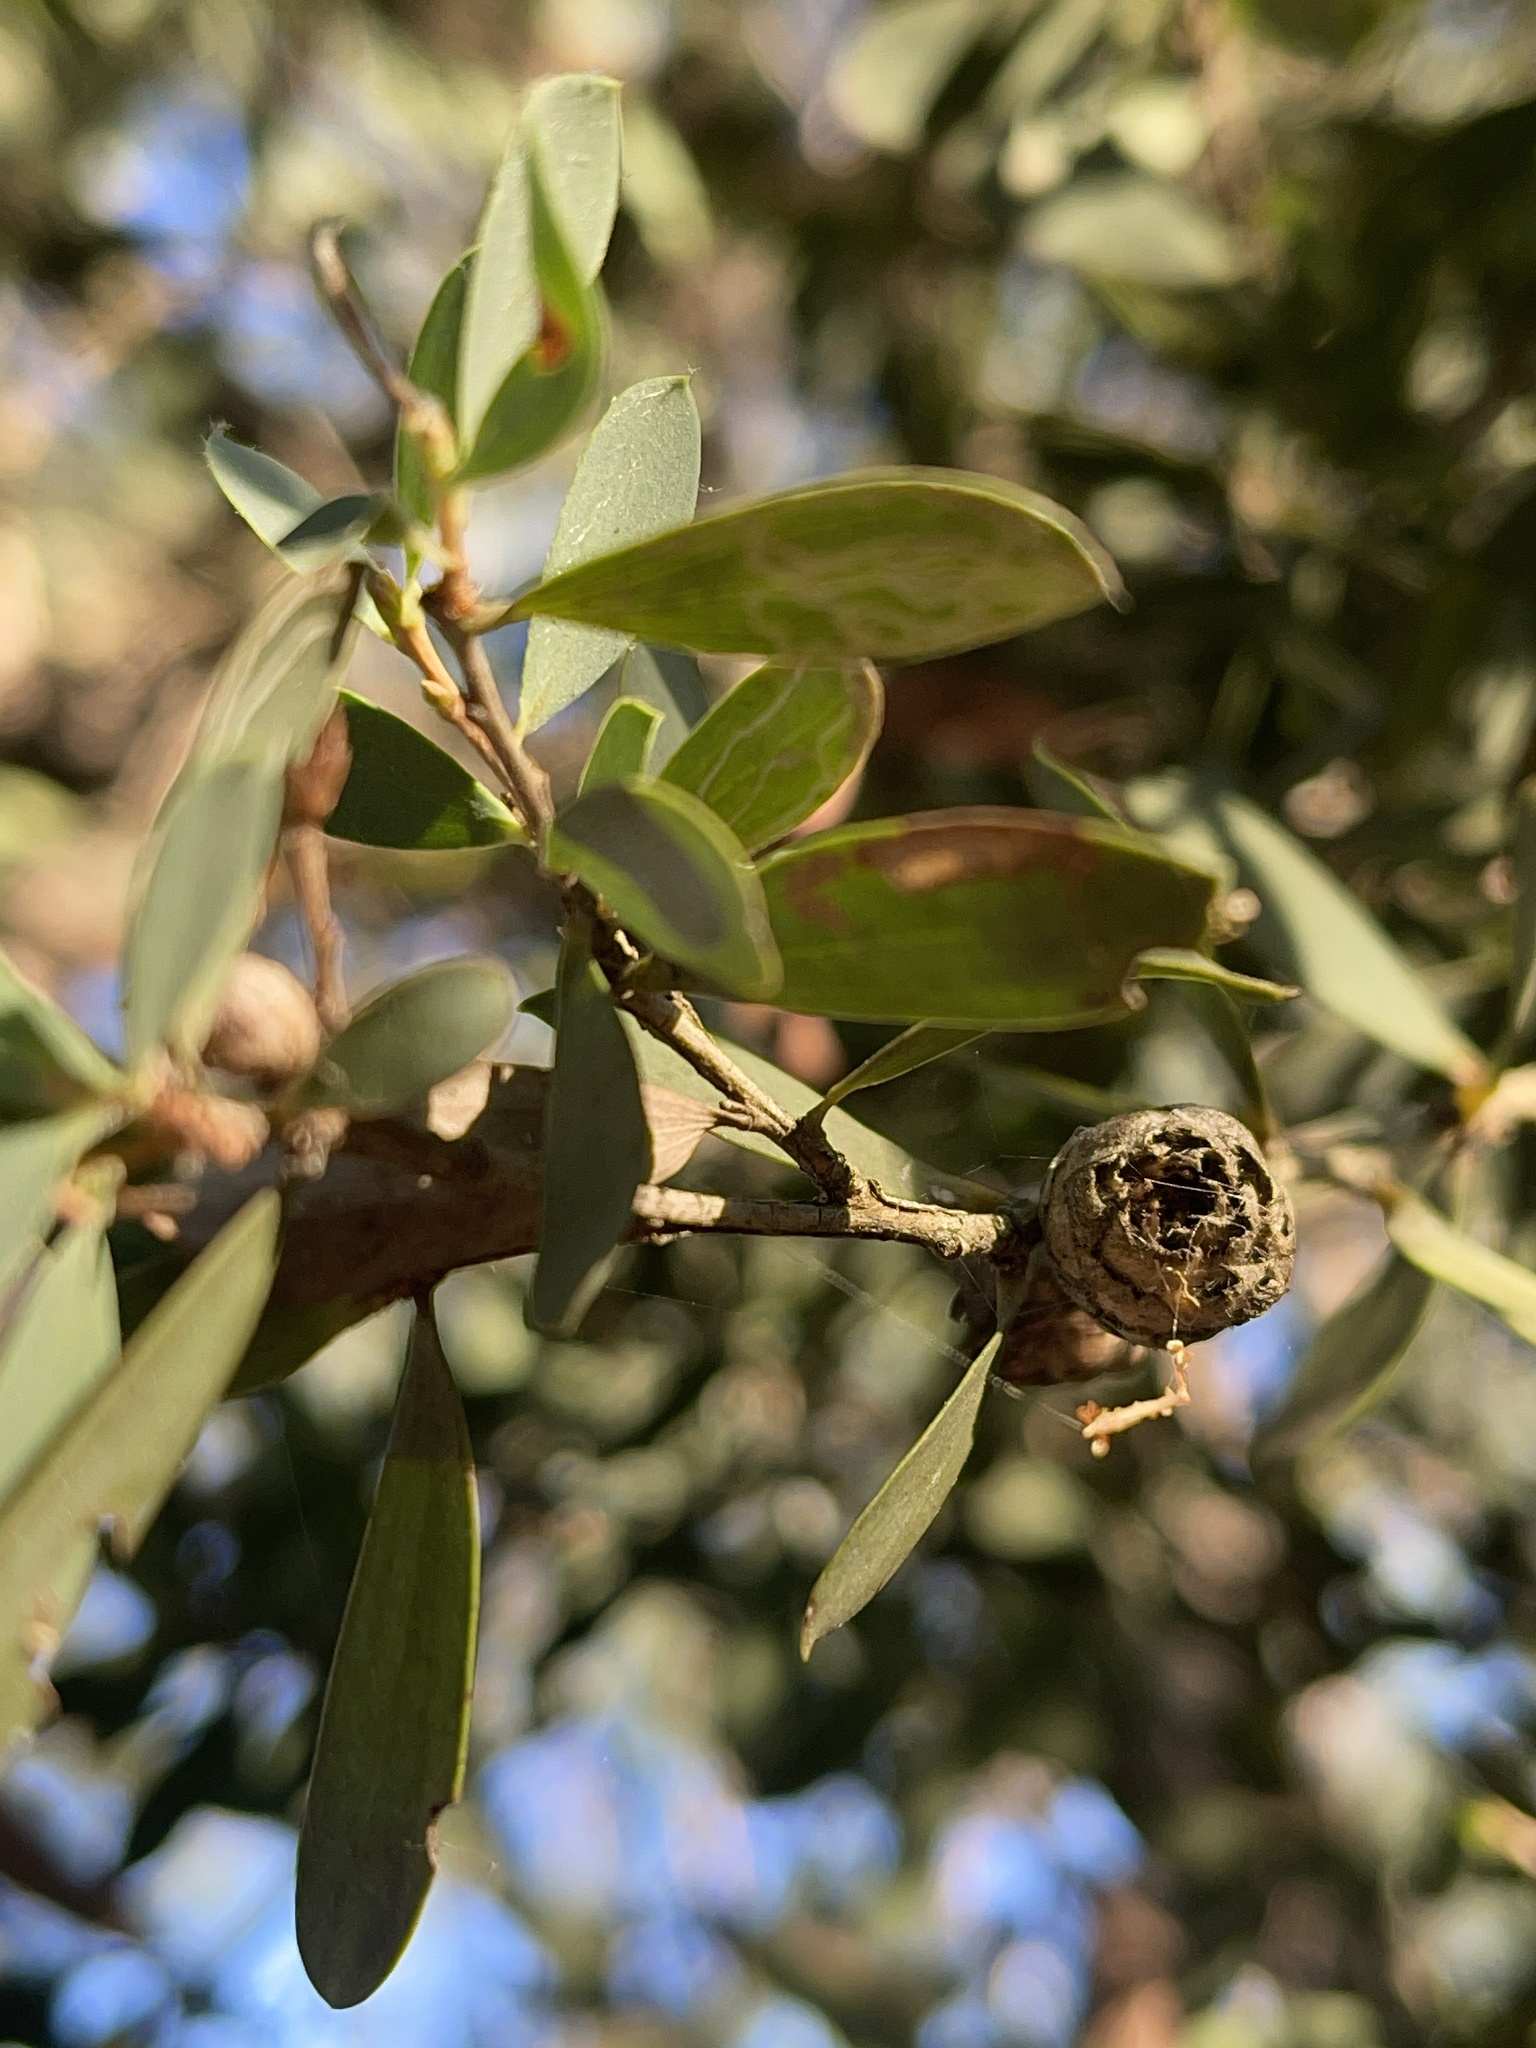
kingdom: Plantae
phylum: Tracheophyta
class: Magnoliopsida
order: Myrtales
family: Myrtaceae
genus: Leptospermum
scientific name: Leptospermum laevigatum
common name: Australian teatree
